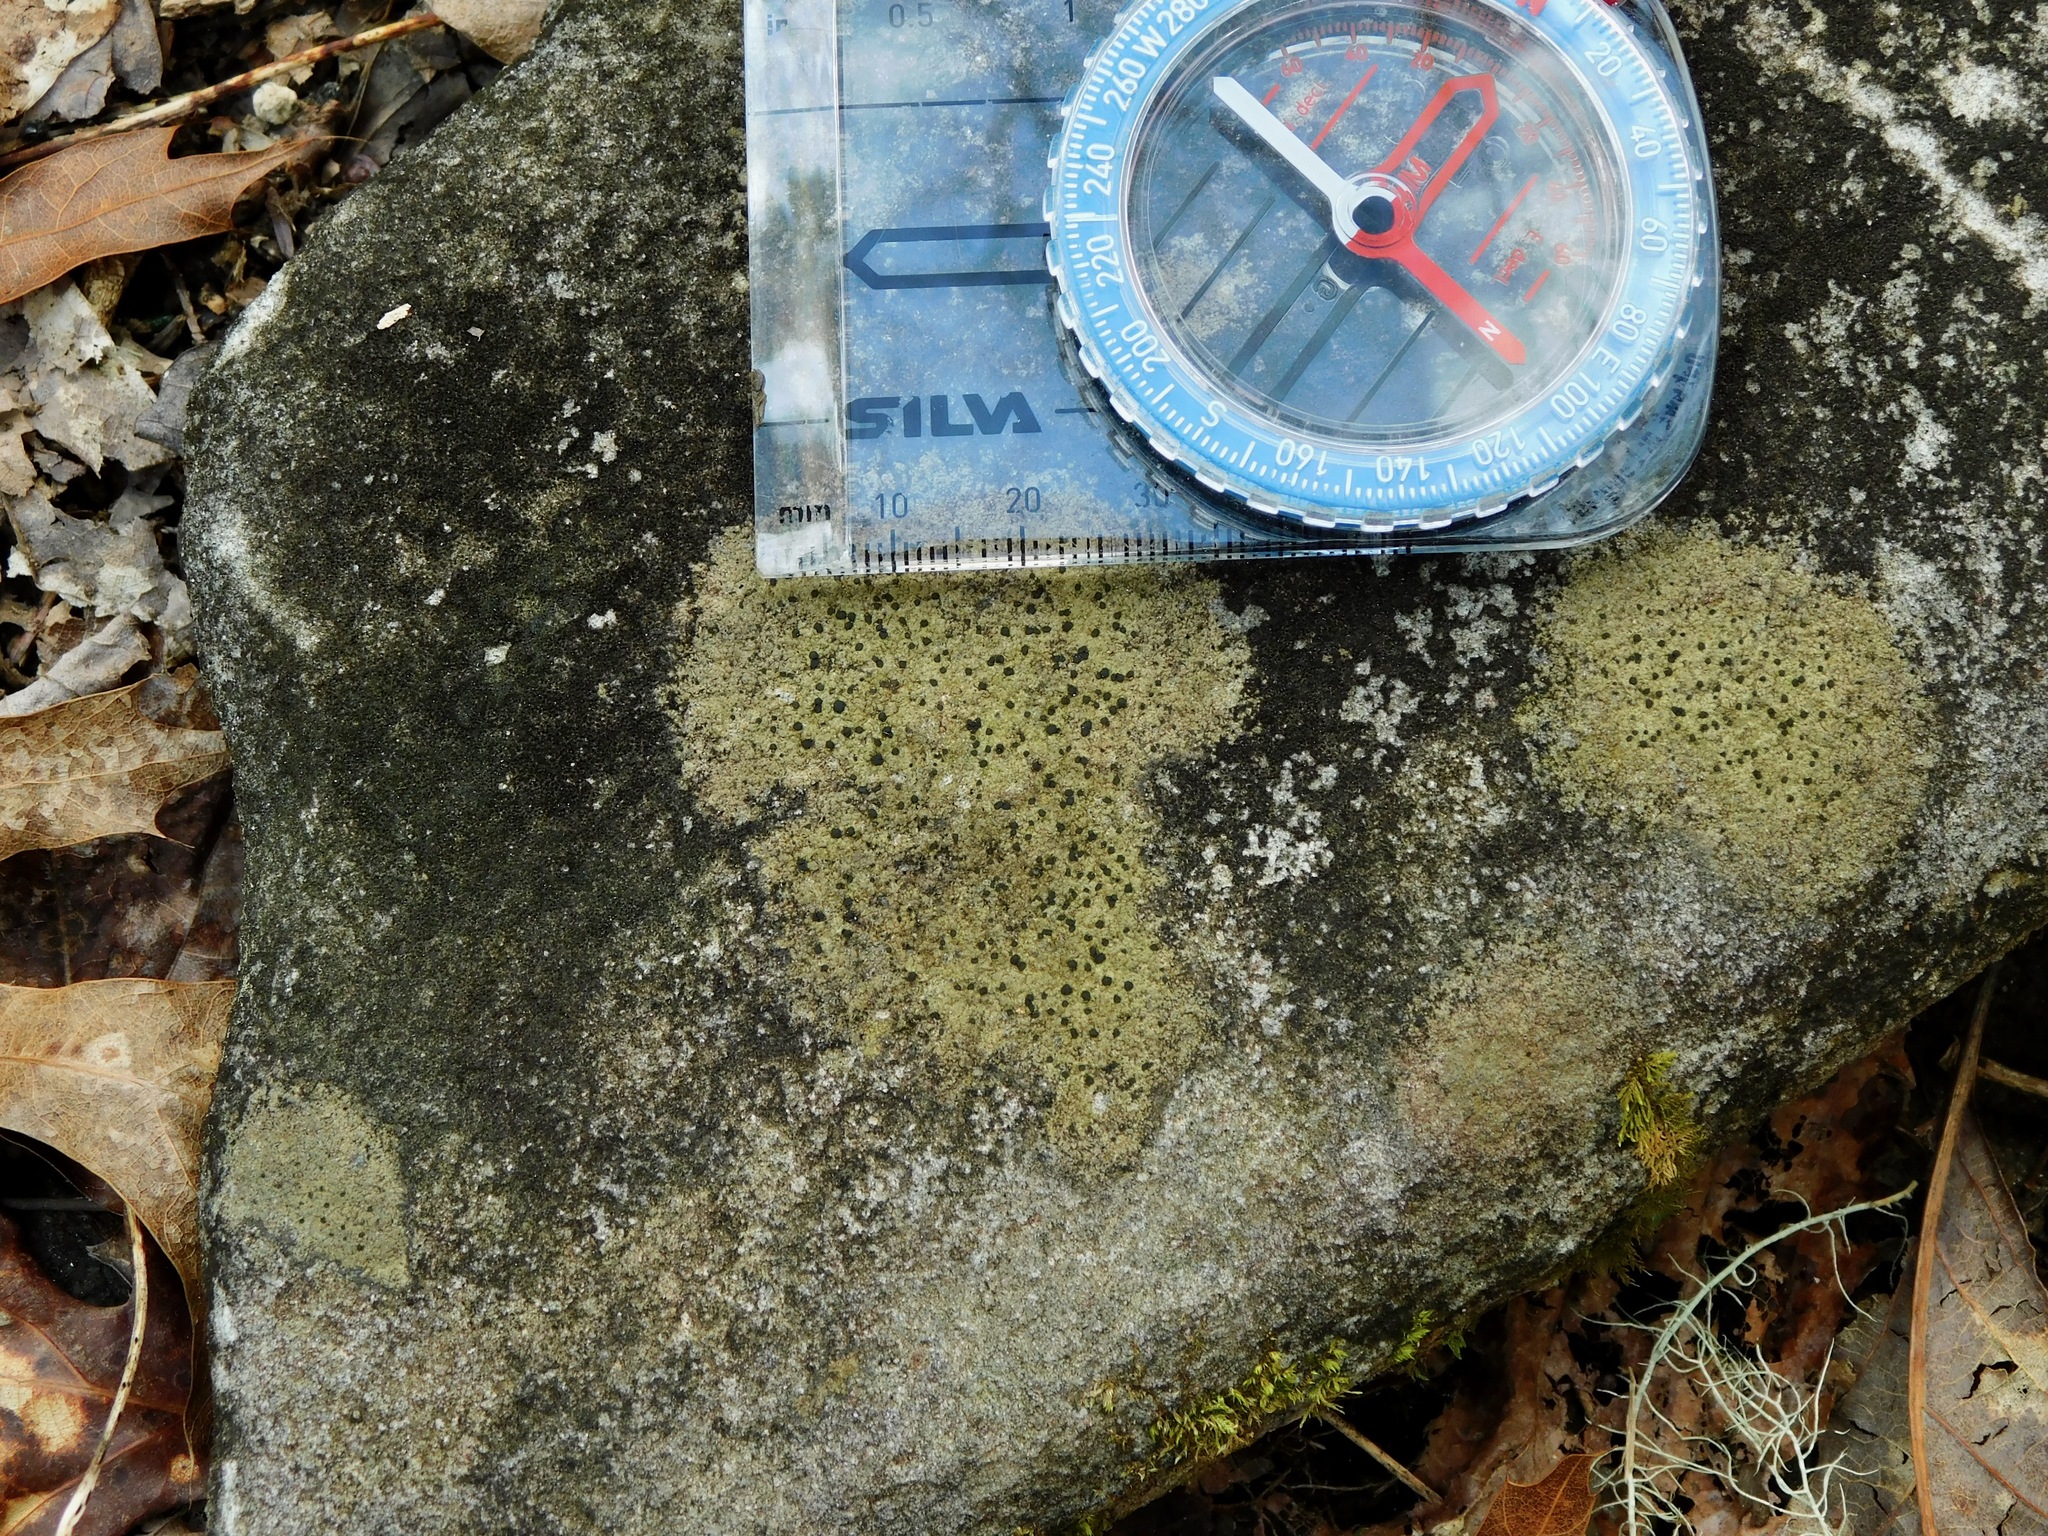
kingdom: Fungi
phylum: Ascomycota
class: Lecanoromycetes
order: Lecanorales
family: Lecanoraceae
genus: Lecidella
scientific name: Lecidella stigmatea
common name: Limestone disc lichen
